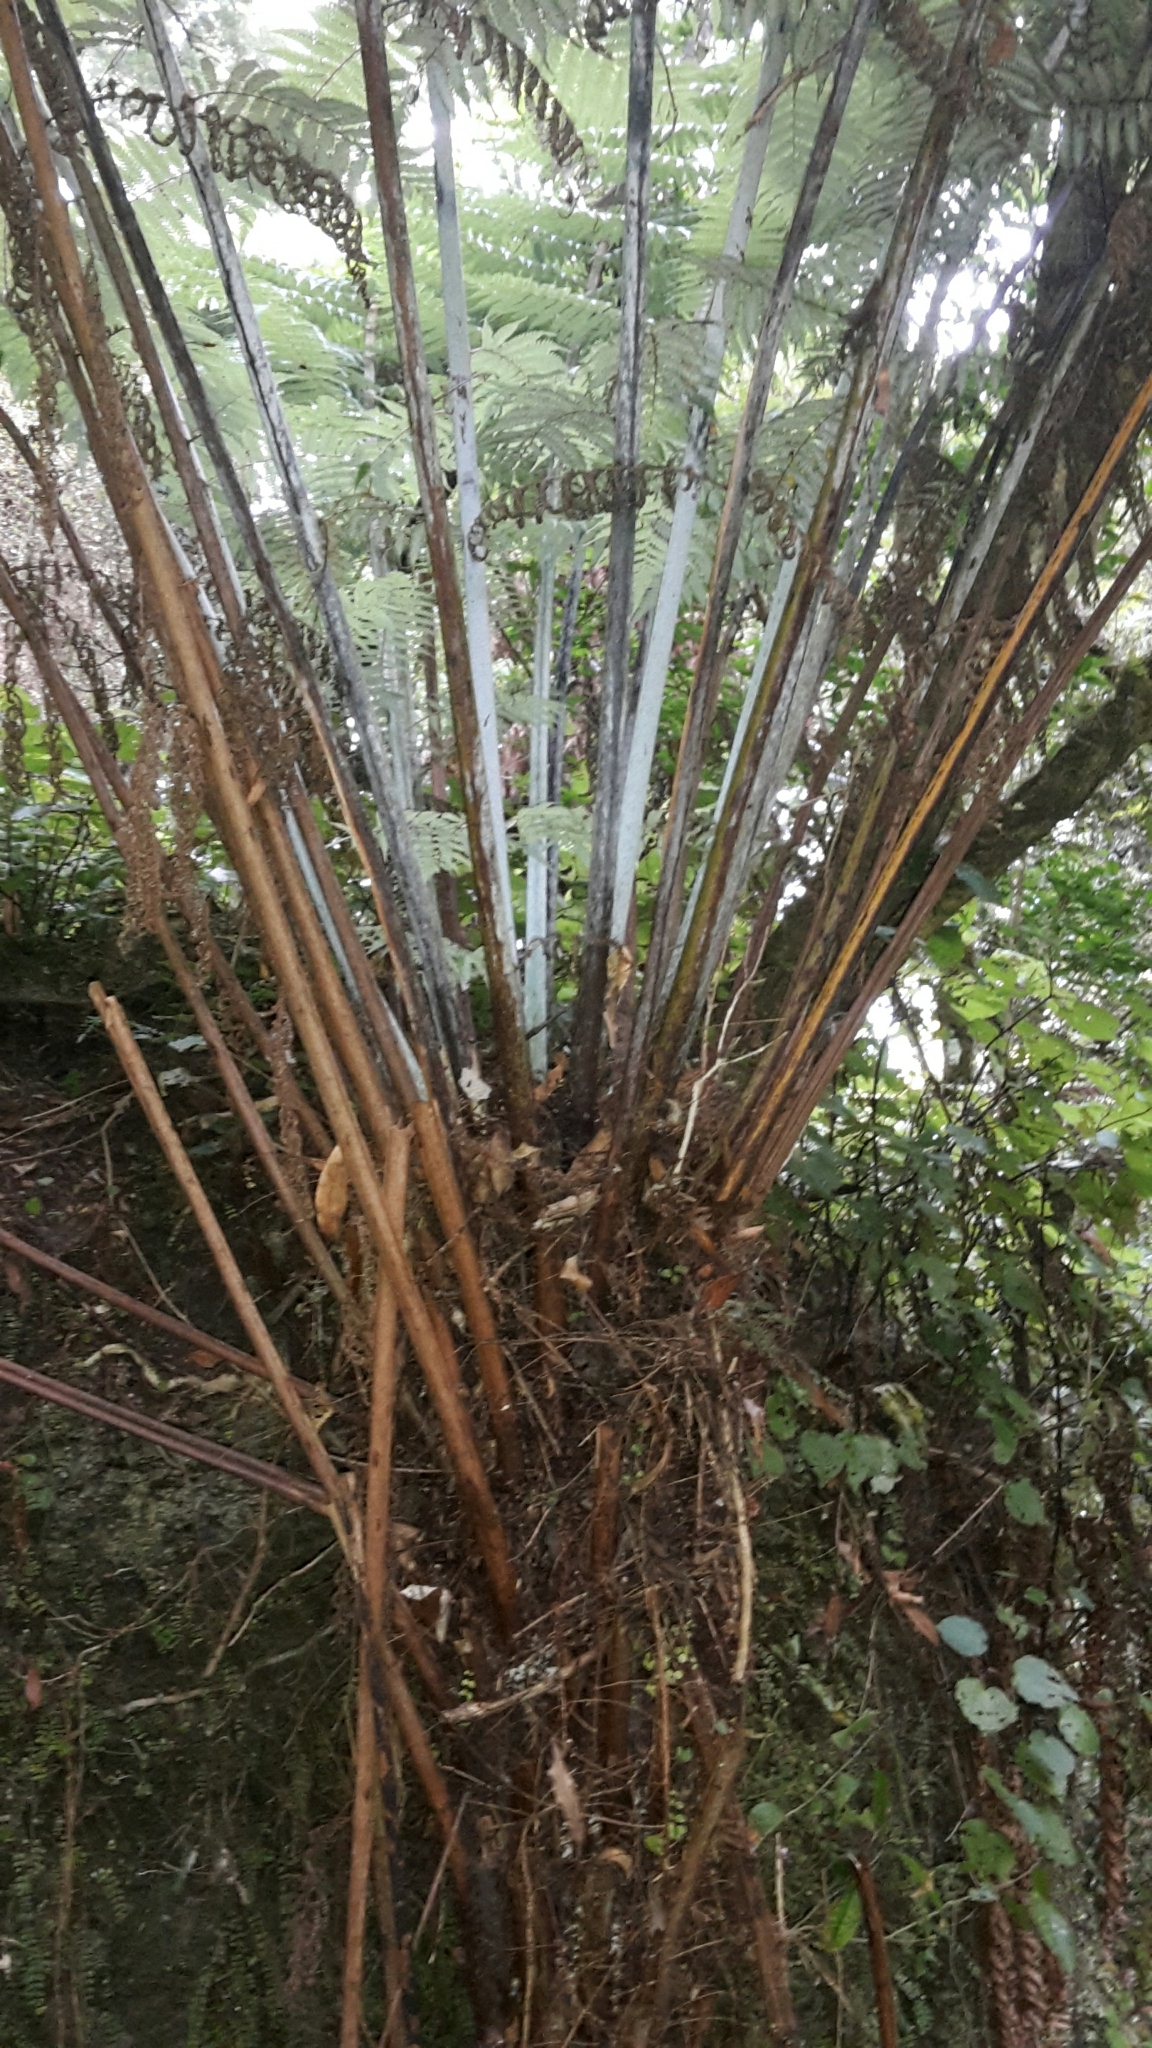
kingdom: Plantae
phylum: Tracheophyta
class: Polypodiopsida
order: Cyatheales
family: Cyatheaceae
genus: Alsophila
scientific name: Alsophila dealbata
